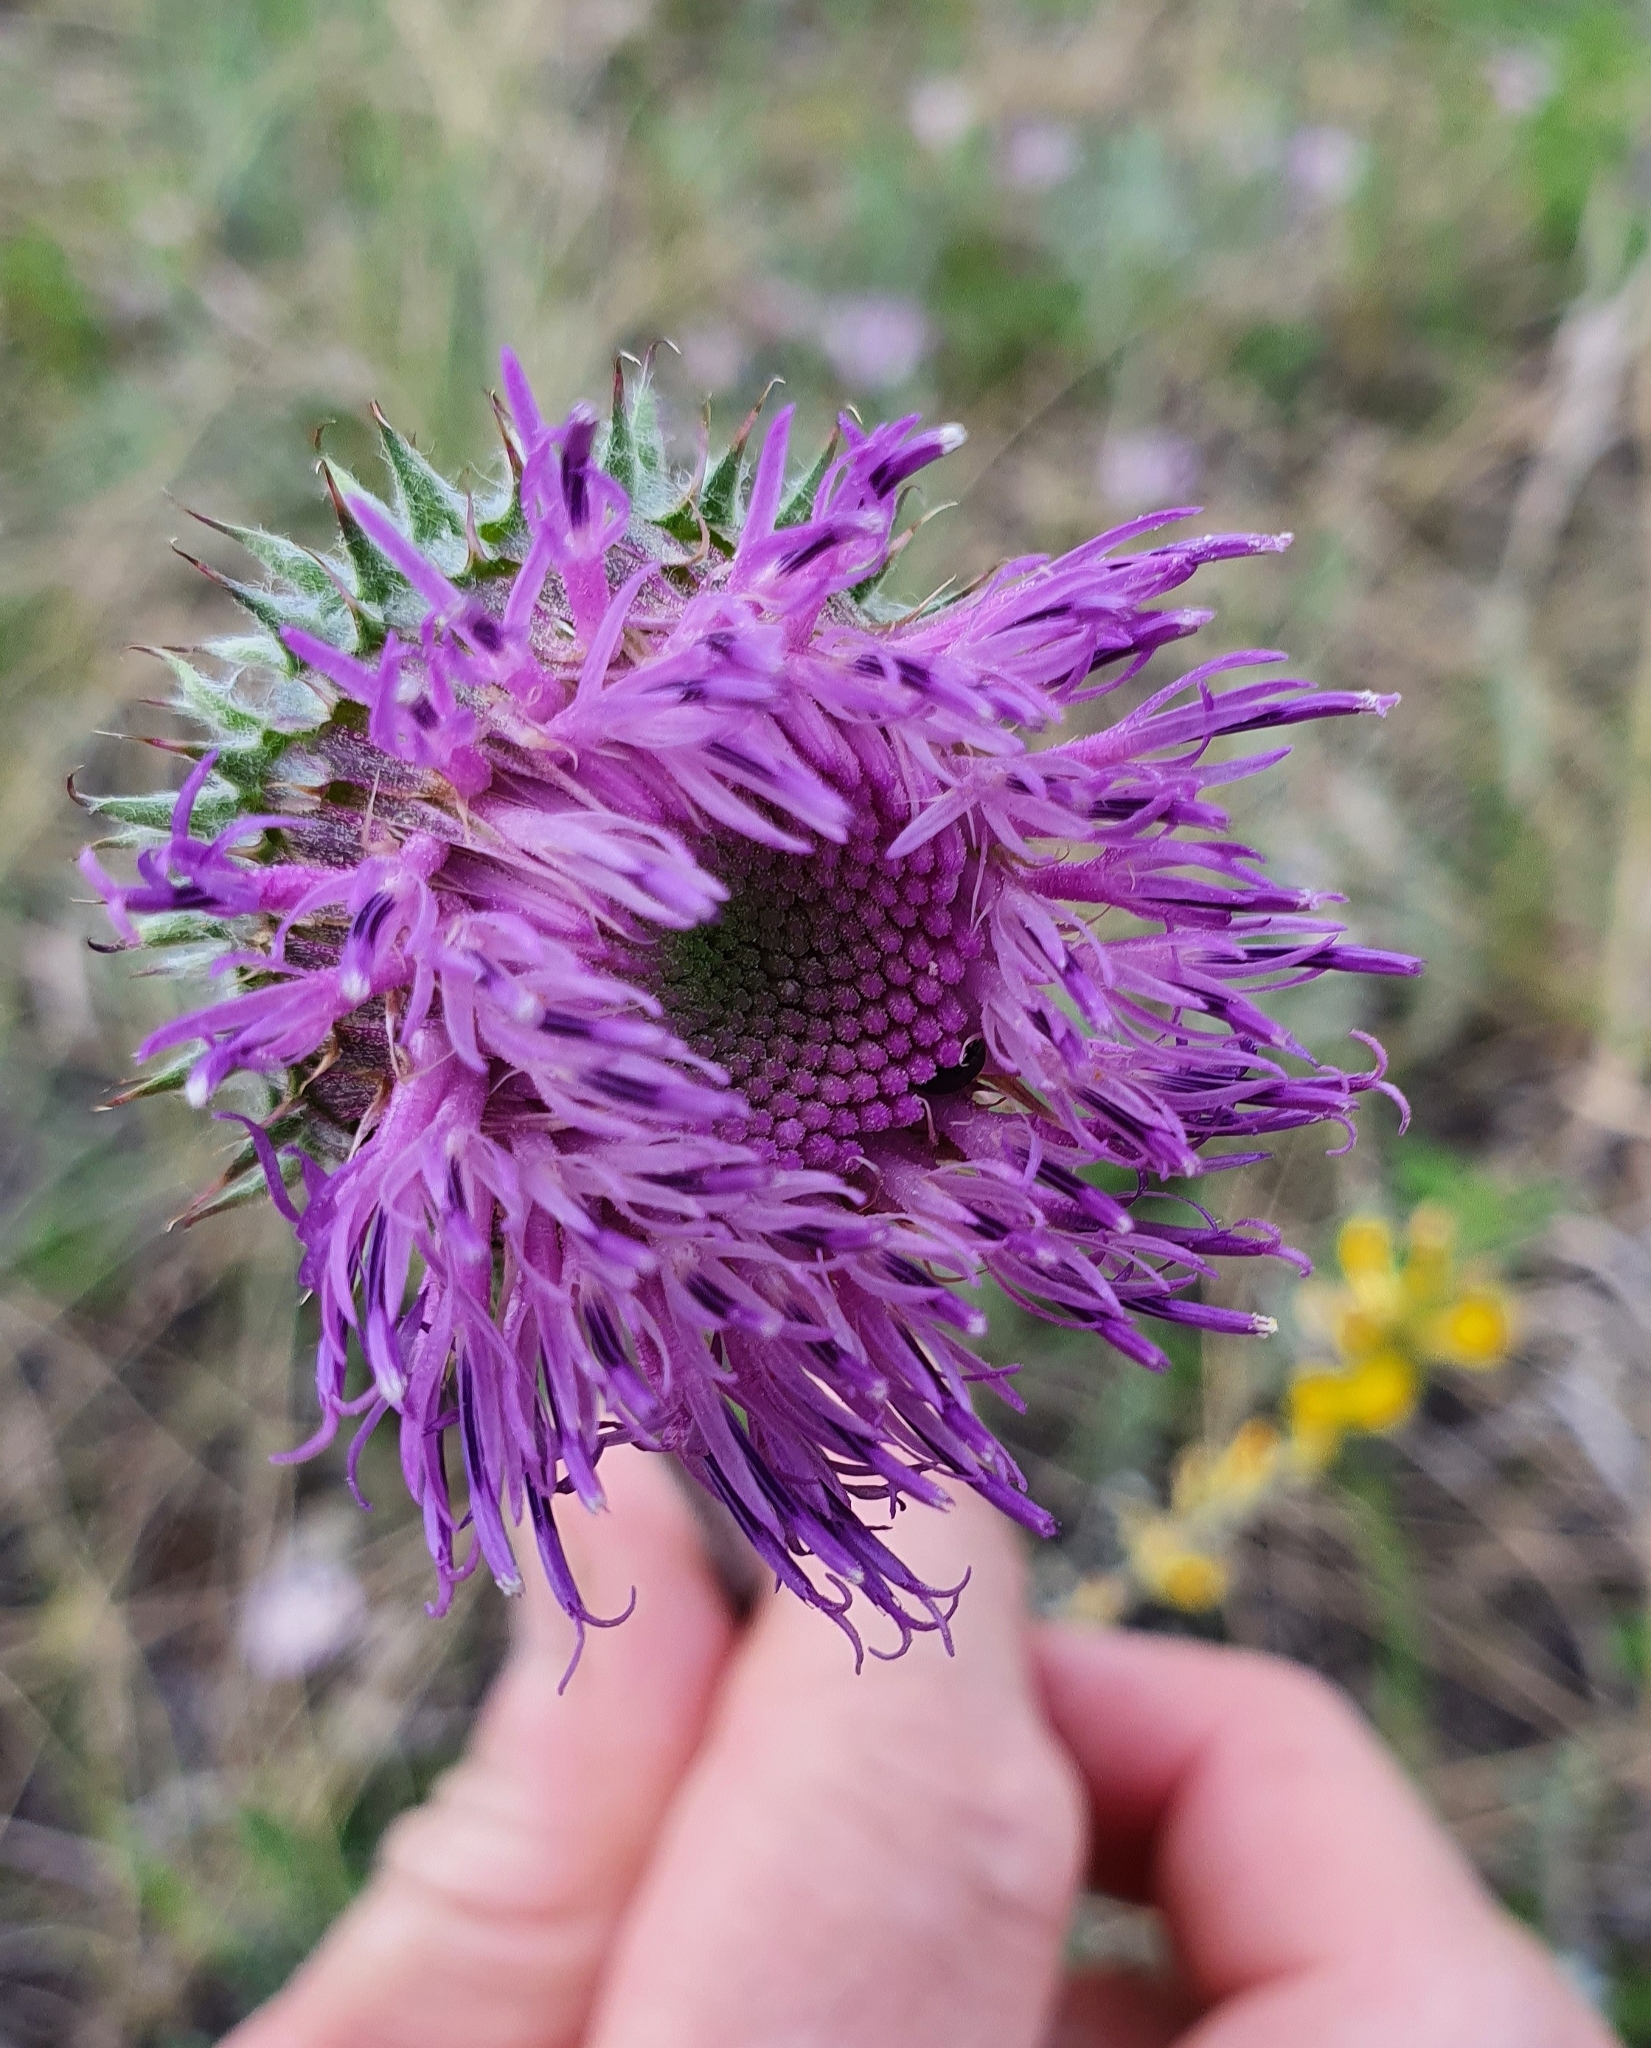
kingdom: Plantae
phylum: Tracheophyta
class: Magnoliopsida
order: Asterales
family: Asteraceae
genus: Jurinea
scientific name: Jurinea ledebourii
